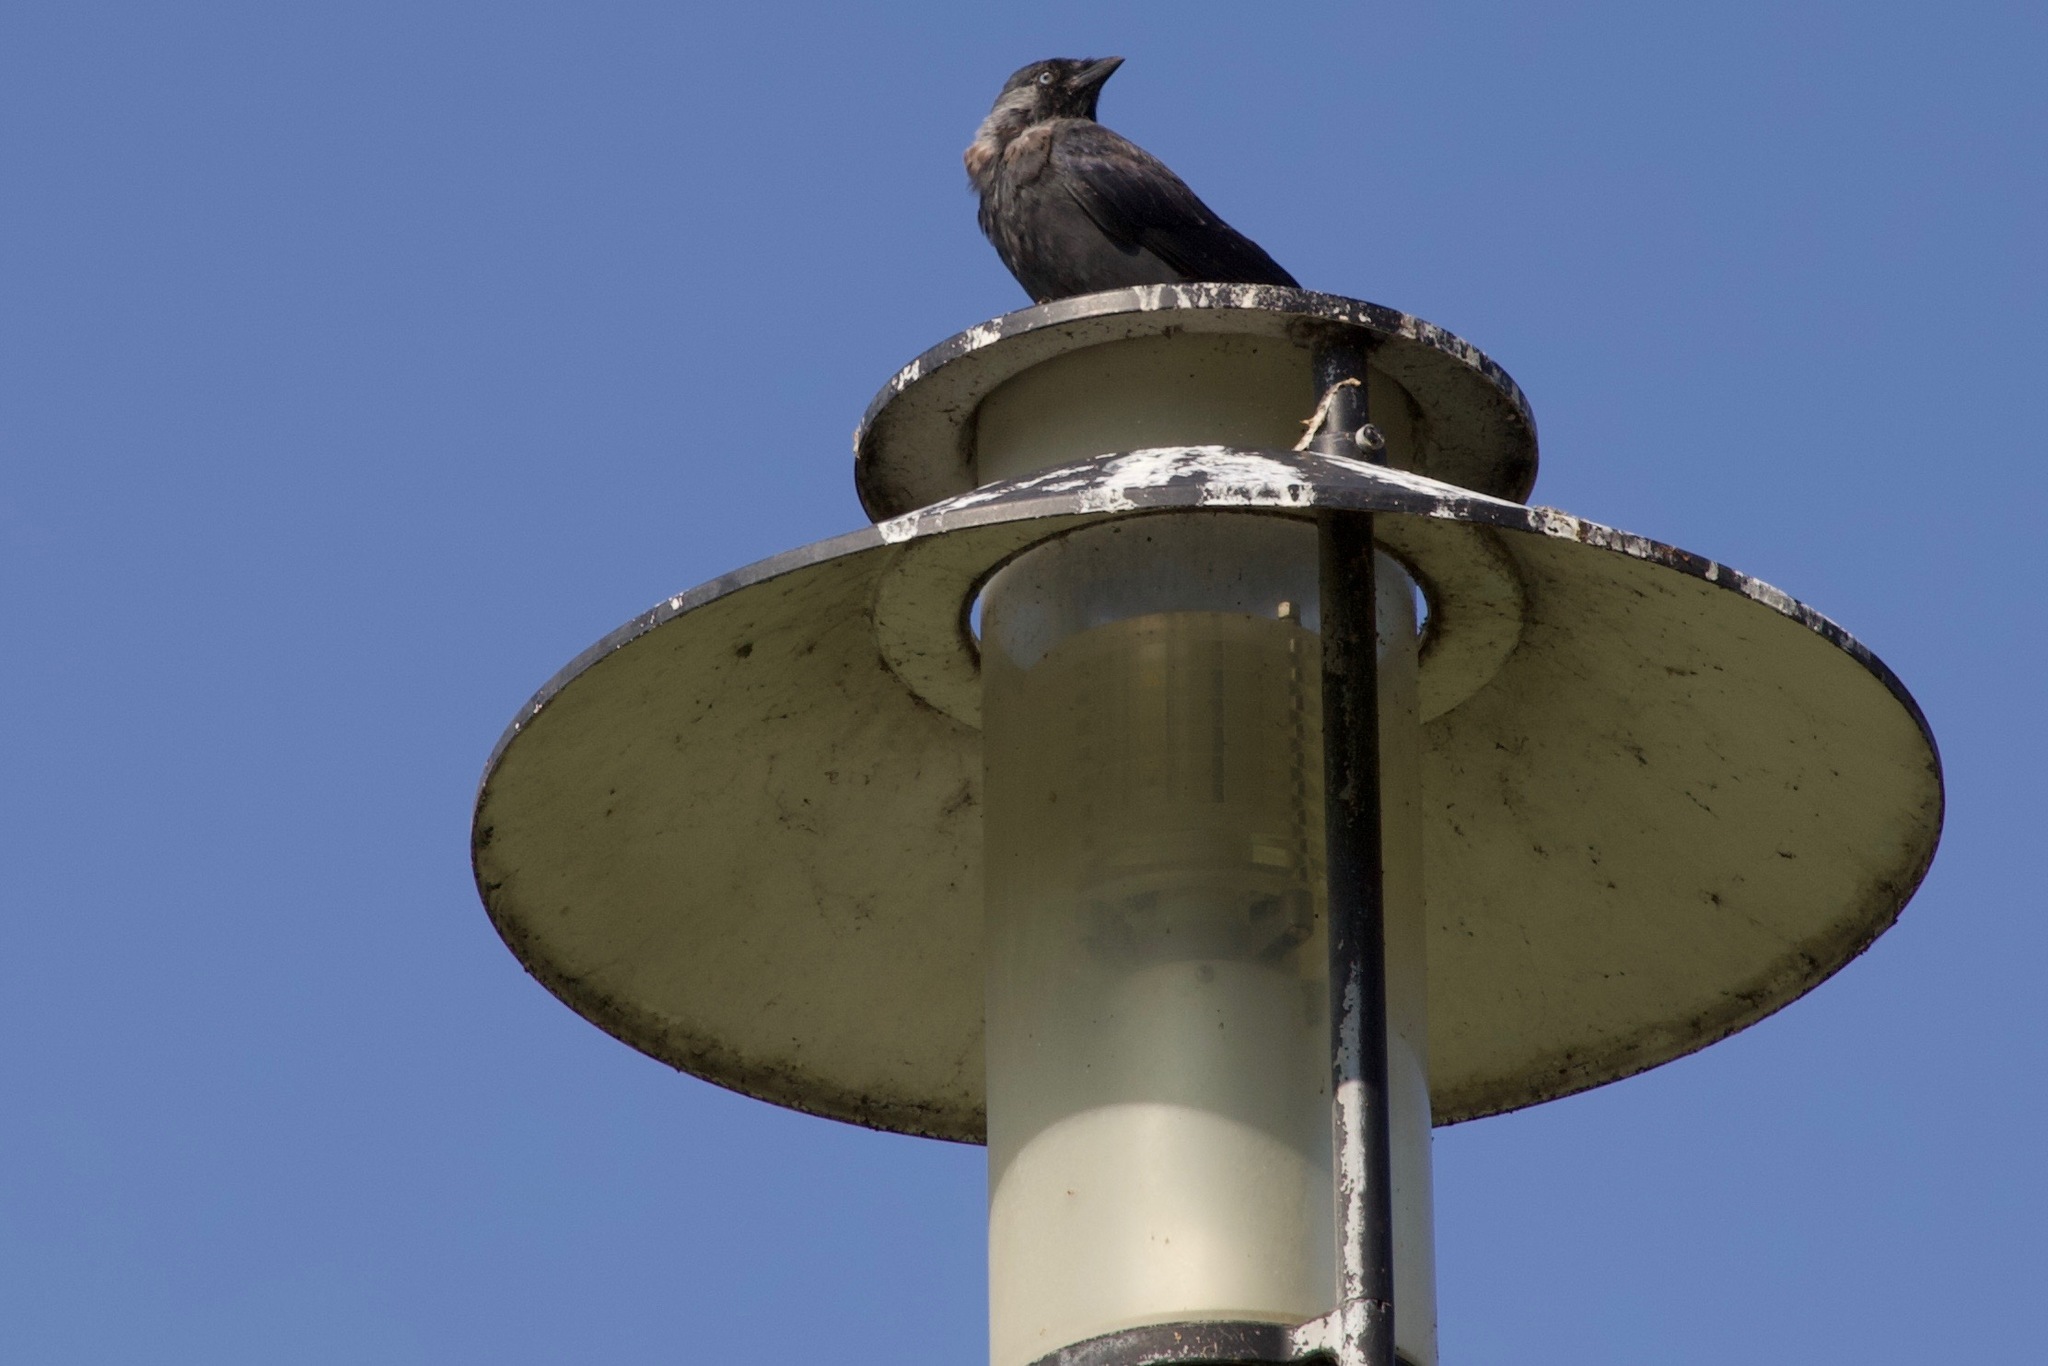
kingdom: Animalia
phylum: Chordata
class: Aves
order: Passeriformes
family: Corvidae
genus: Coloeus
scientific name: Coloeus monedula
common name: Western jackdaw
